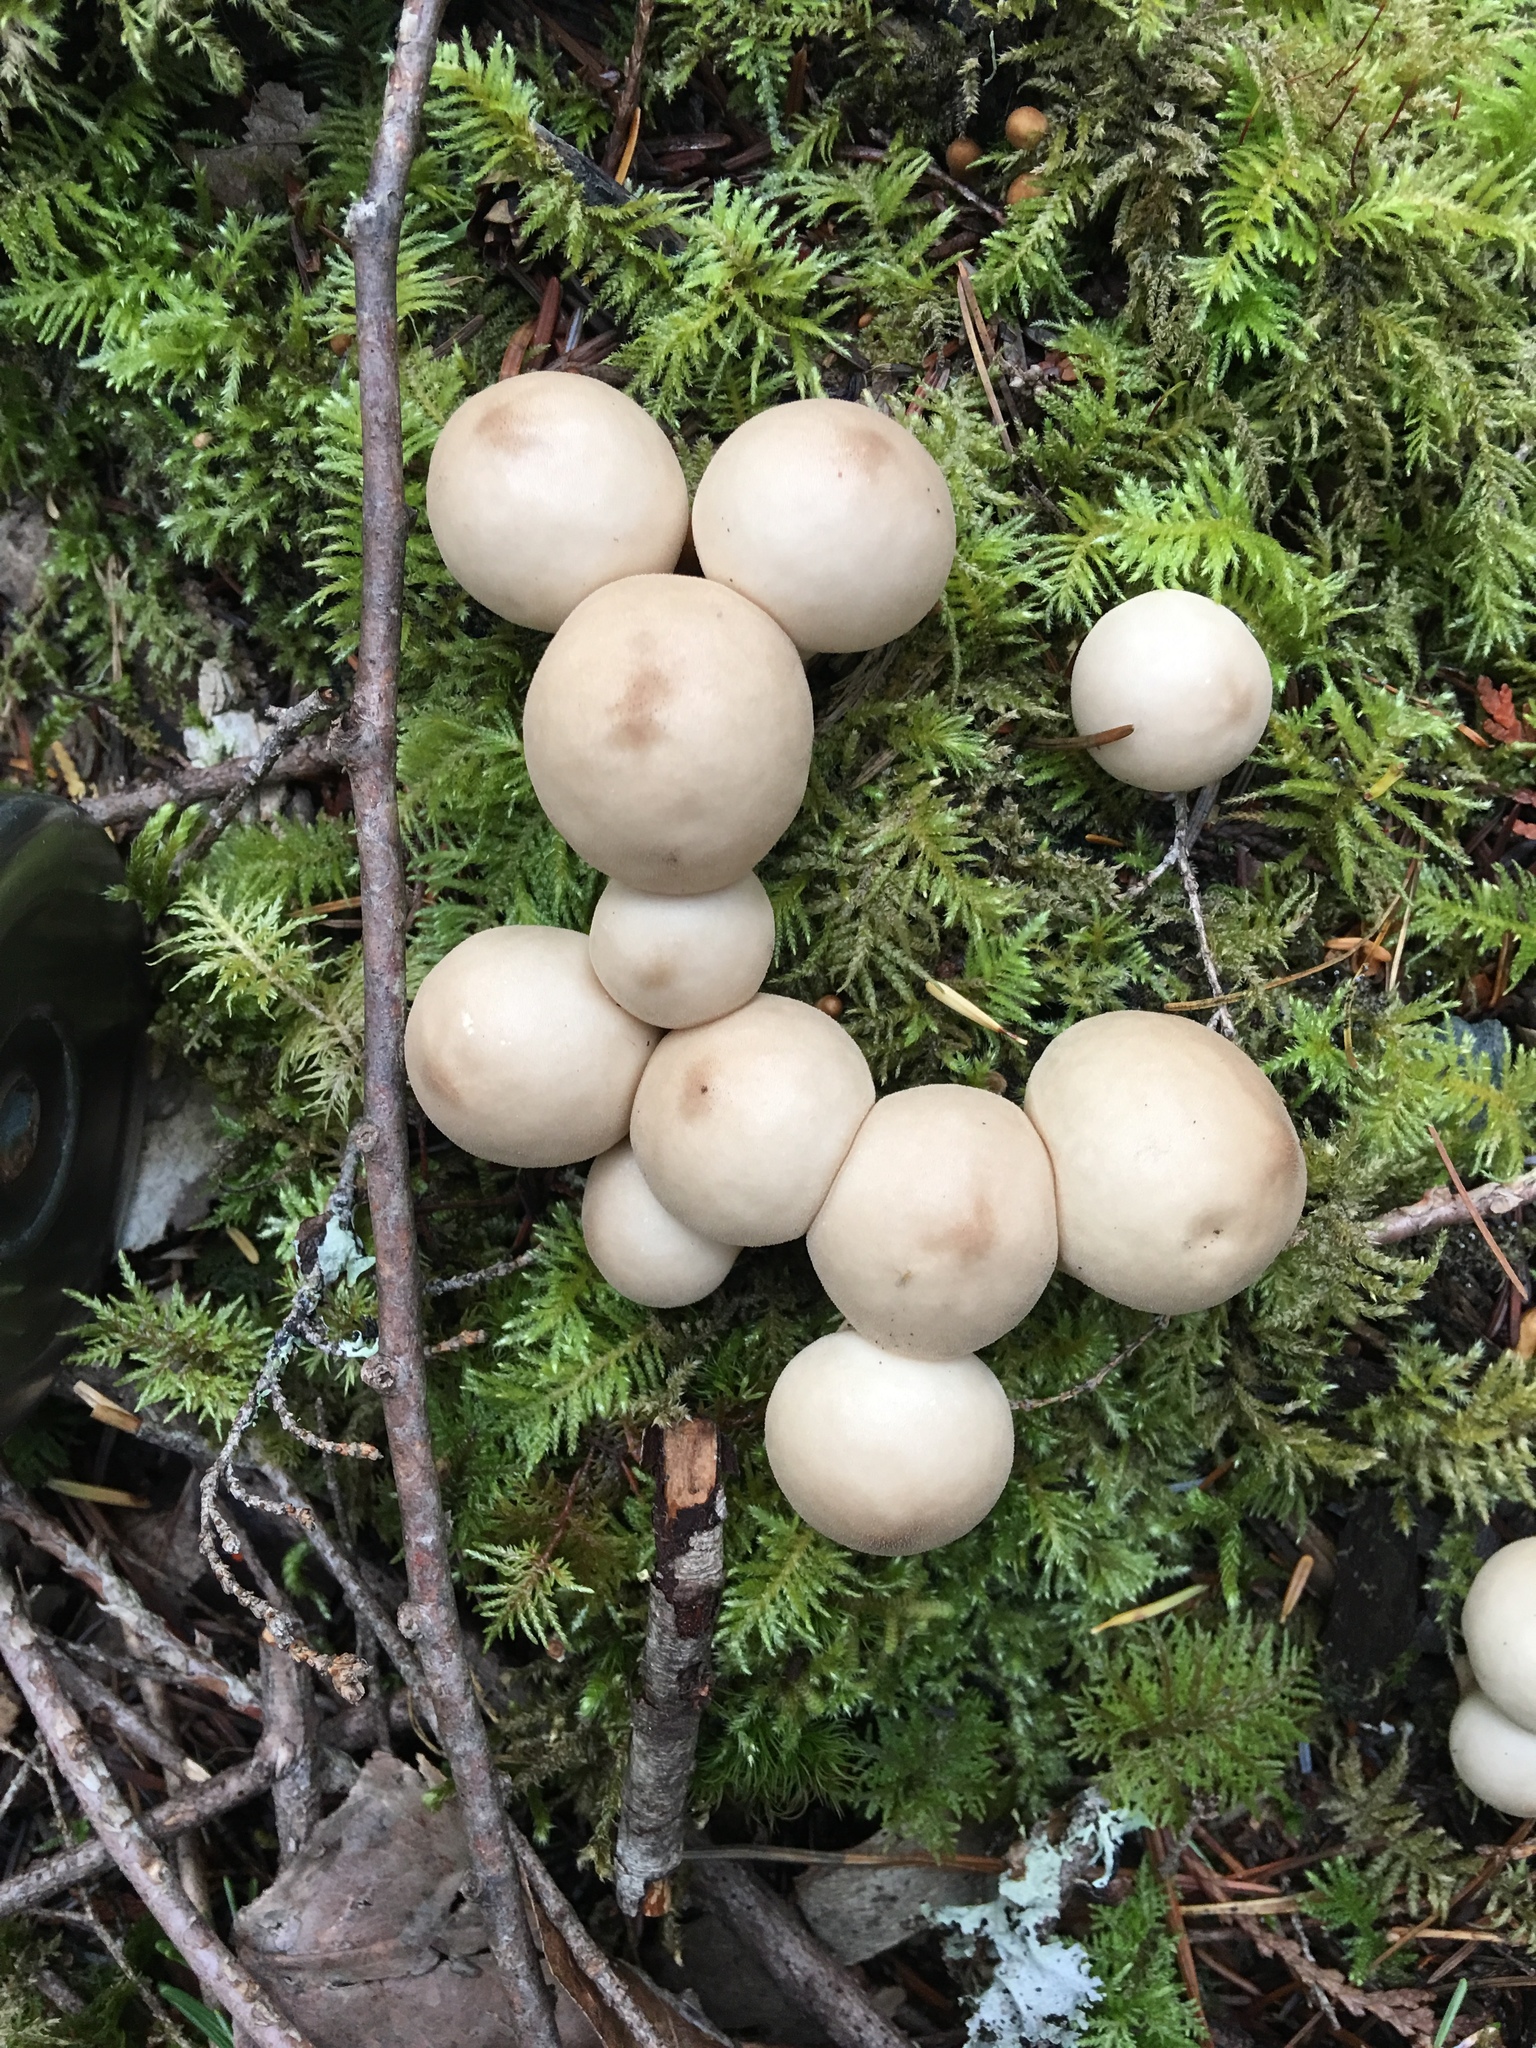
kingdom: Fungi
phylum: Basidiomycota
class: Agaricomycetes
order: Agaricales
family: Lycoperdaceae
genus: Apioperdon
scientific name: Apioperdon pyriforme
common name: Pear-shaped puffball
